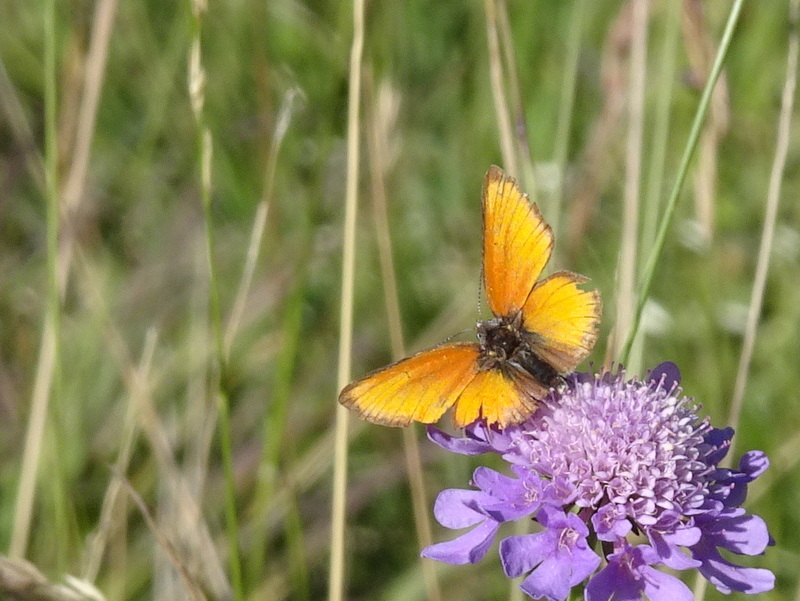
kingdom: Animalia
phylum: Arthropoda
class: Insecta
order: Lepidoptera
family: Lycaenidae
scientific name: Lycaenidae
